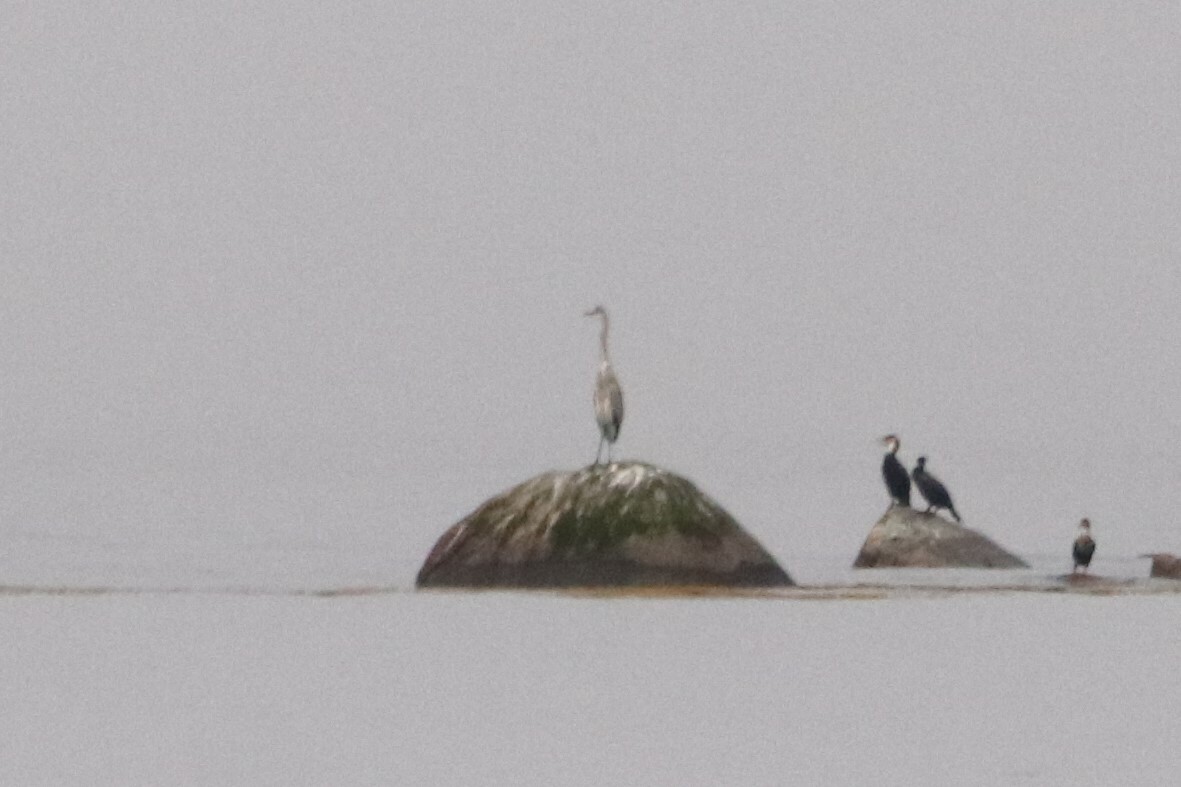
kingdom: Animalia
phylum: Chordata
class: Aves
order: Pelecaniformes
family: Ardeidae
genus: Ardea
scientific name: Ardea herodias
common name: Great blue heron
